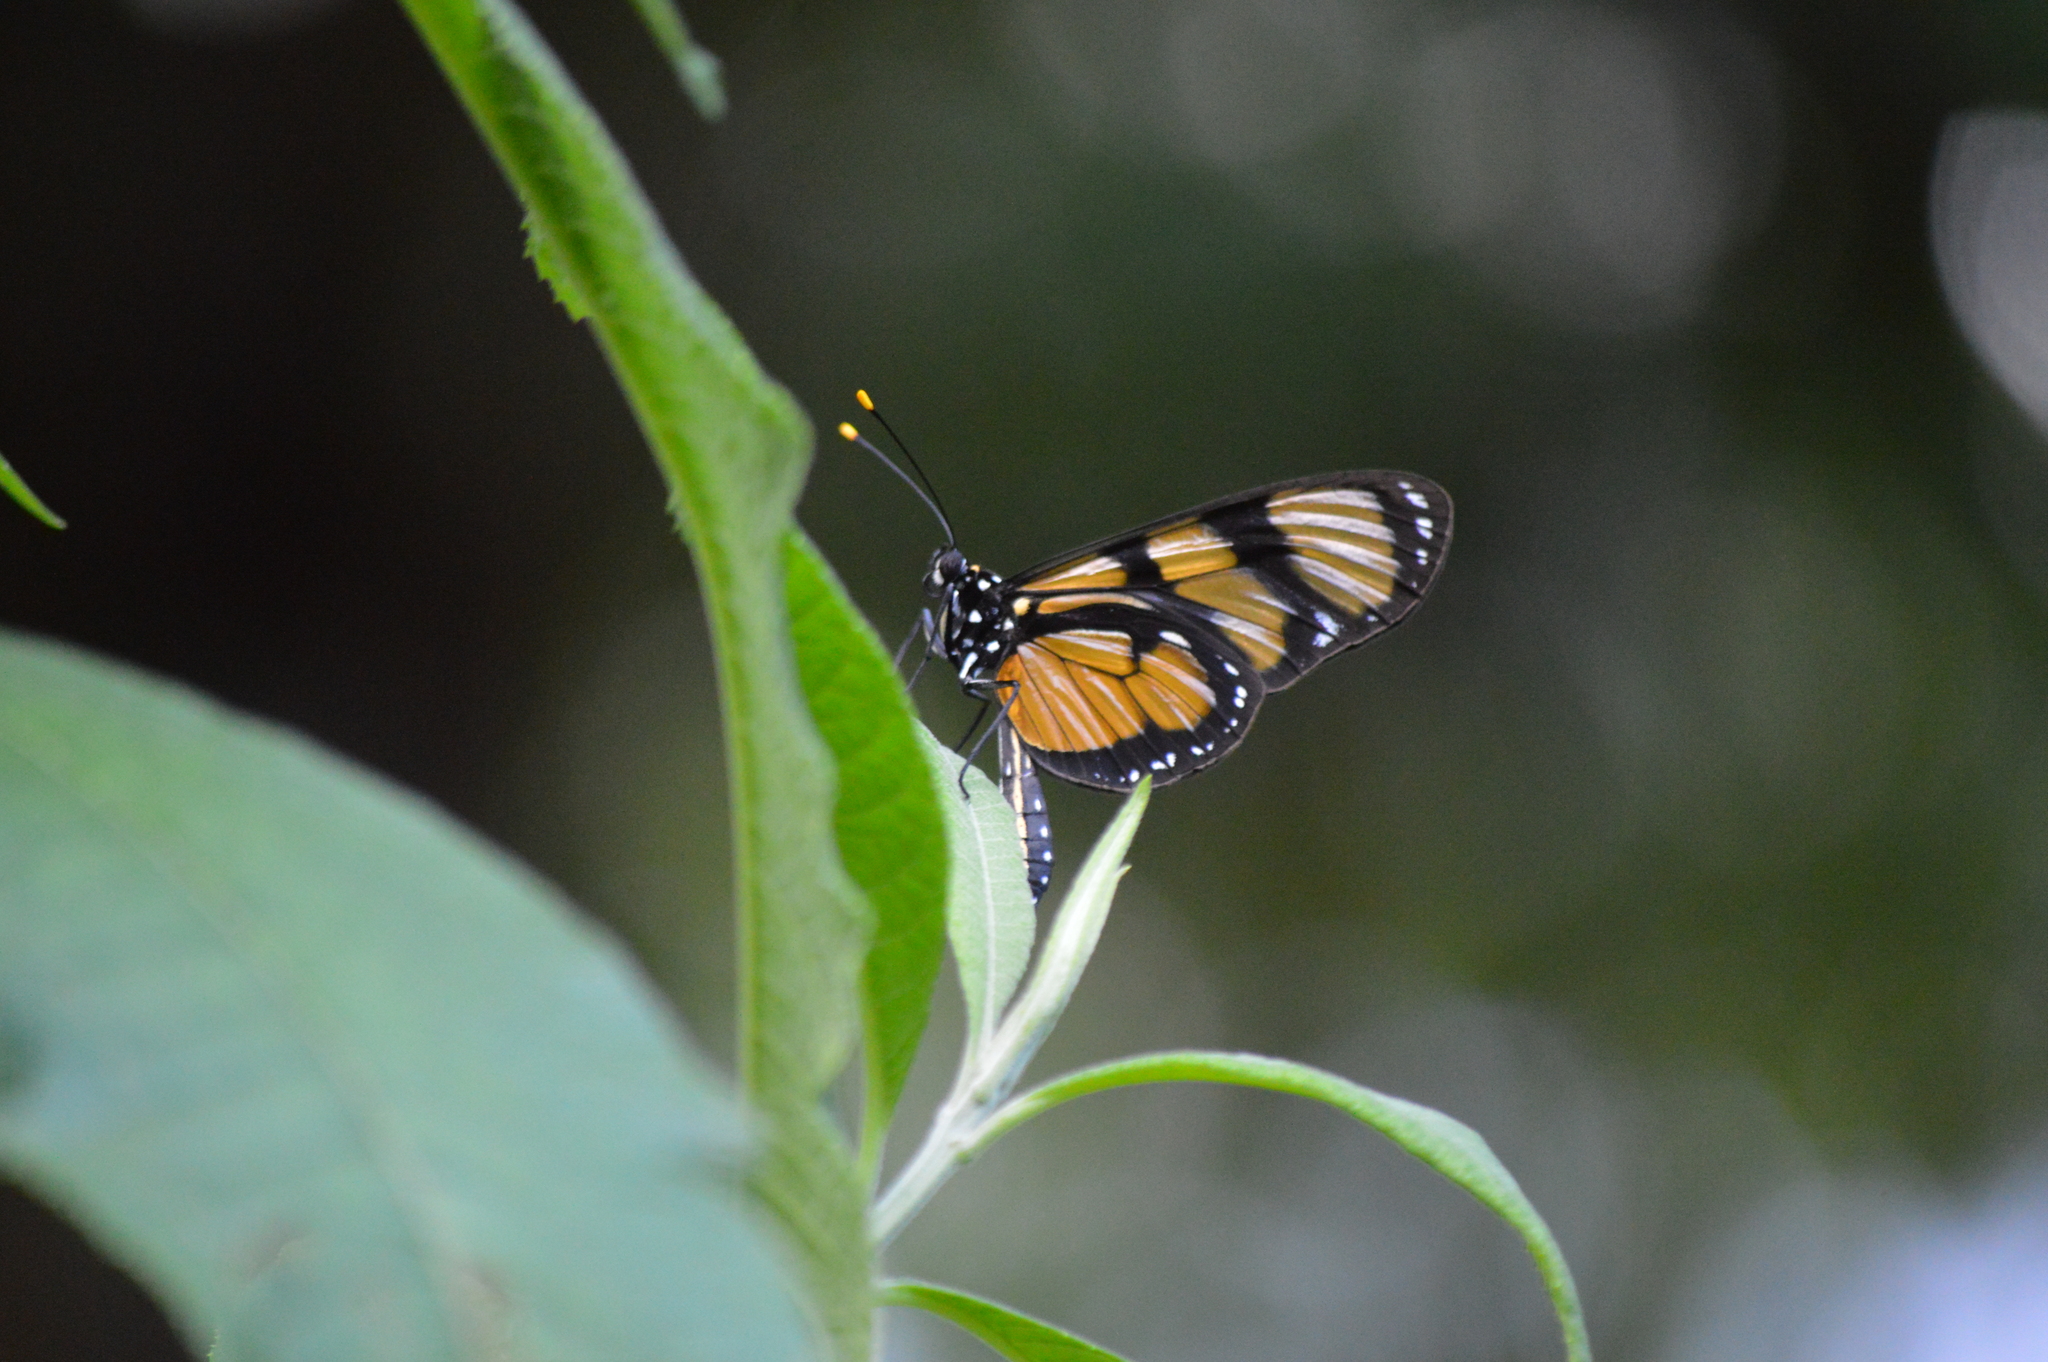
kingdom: Animalia
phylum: Arthropoda
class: Insecta
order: Lepidoptera
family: Nymphalidae
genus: Methona
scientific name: Methona themisto
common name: Themisto amberwing
